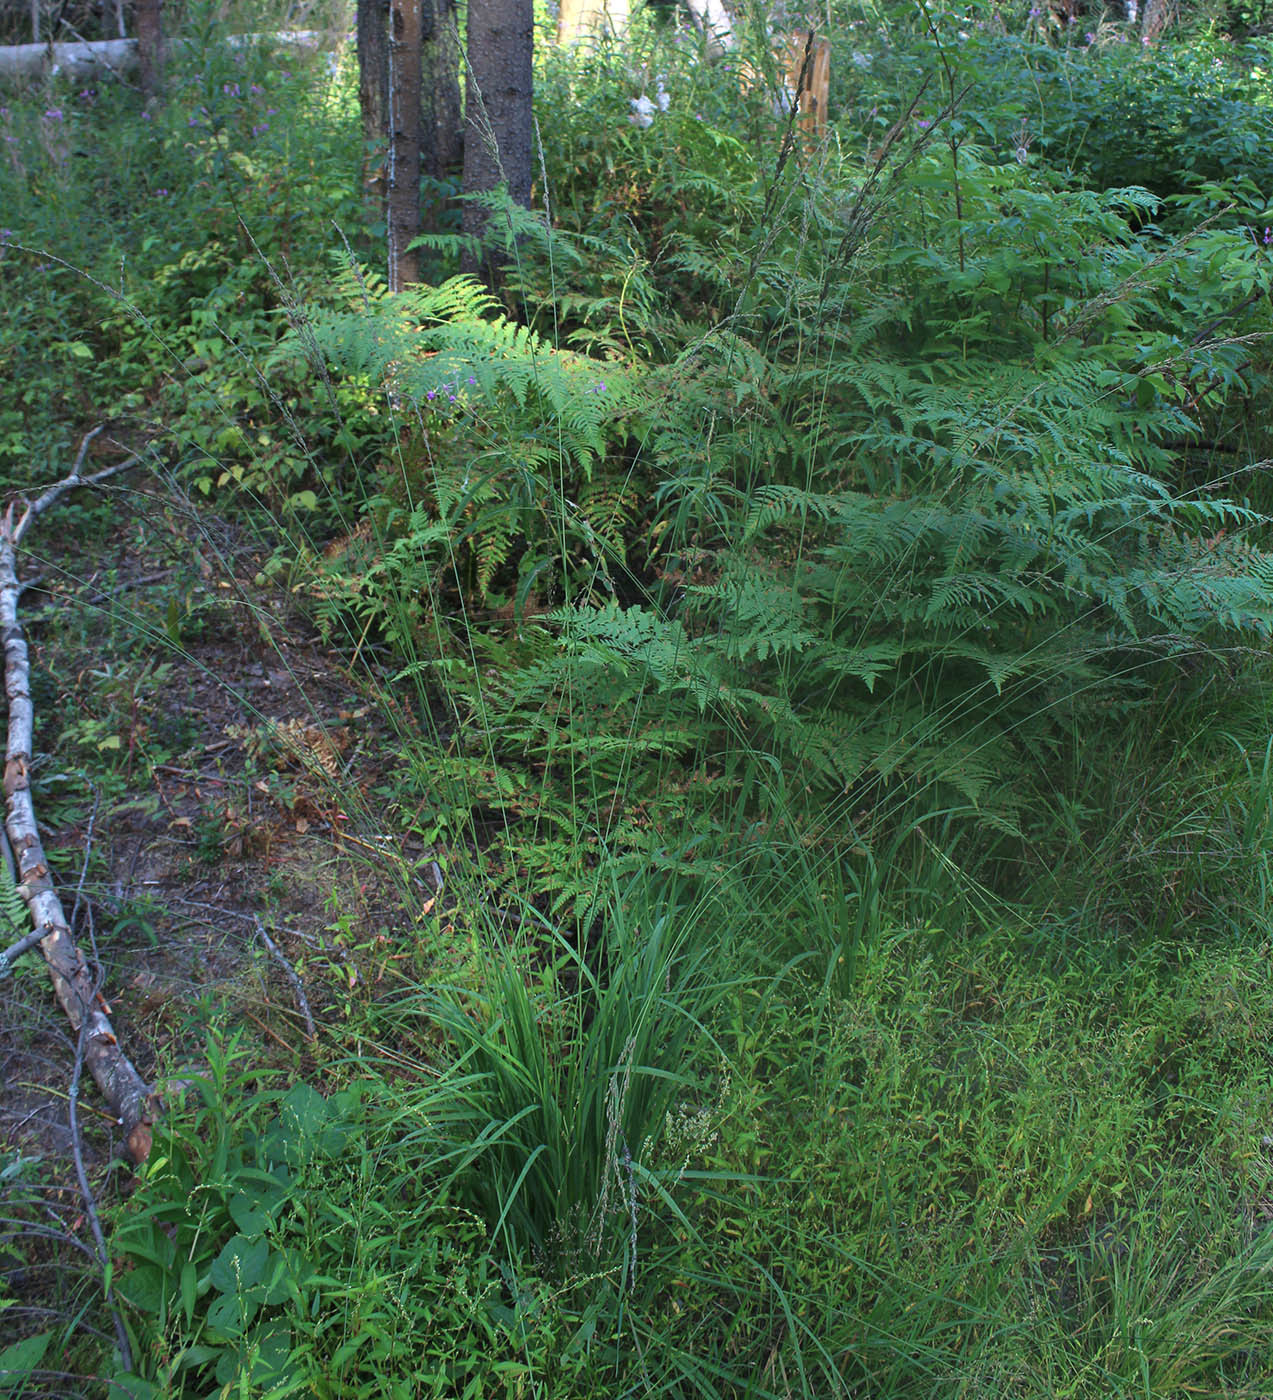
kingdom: Plantae
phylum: Tracheophyta
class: Liliopsida
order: Poales
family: Poaceae
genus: Molinia
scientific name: Molinia caerulea
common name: Purple moor-grass
